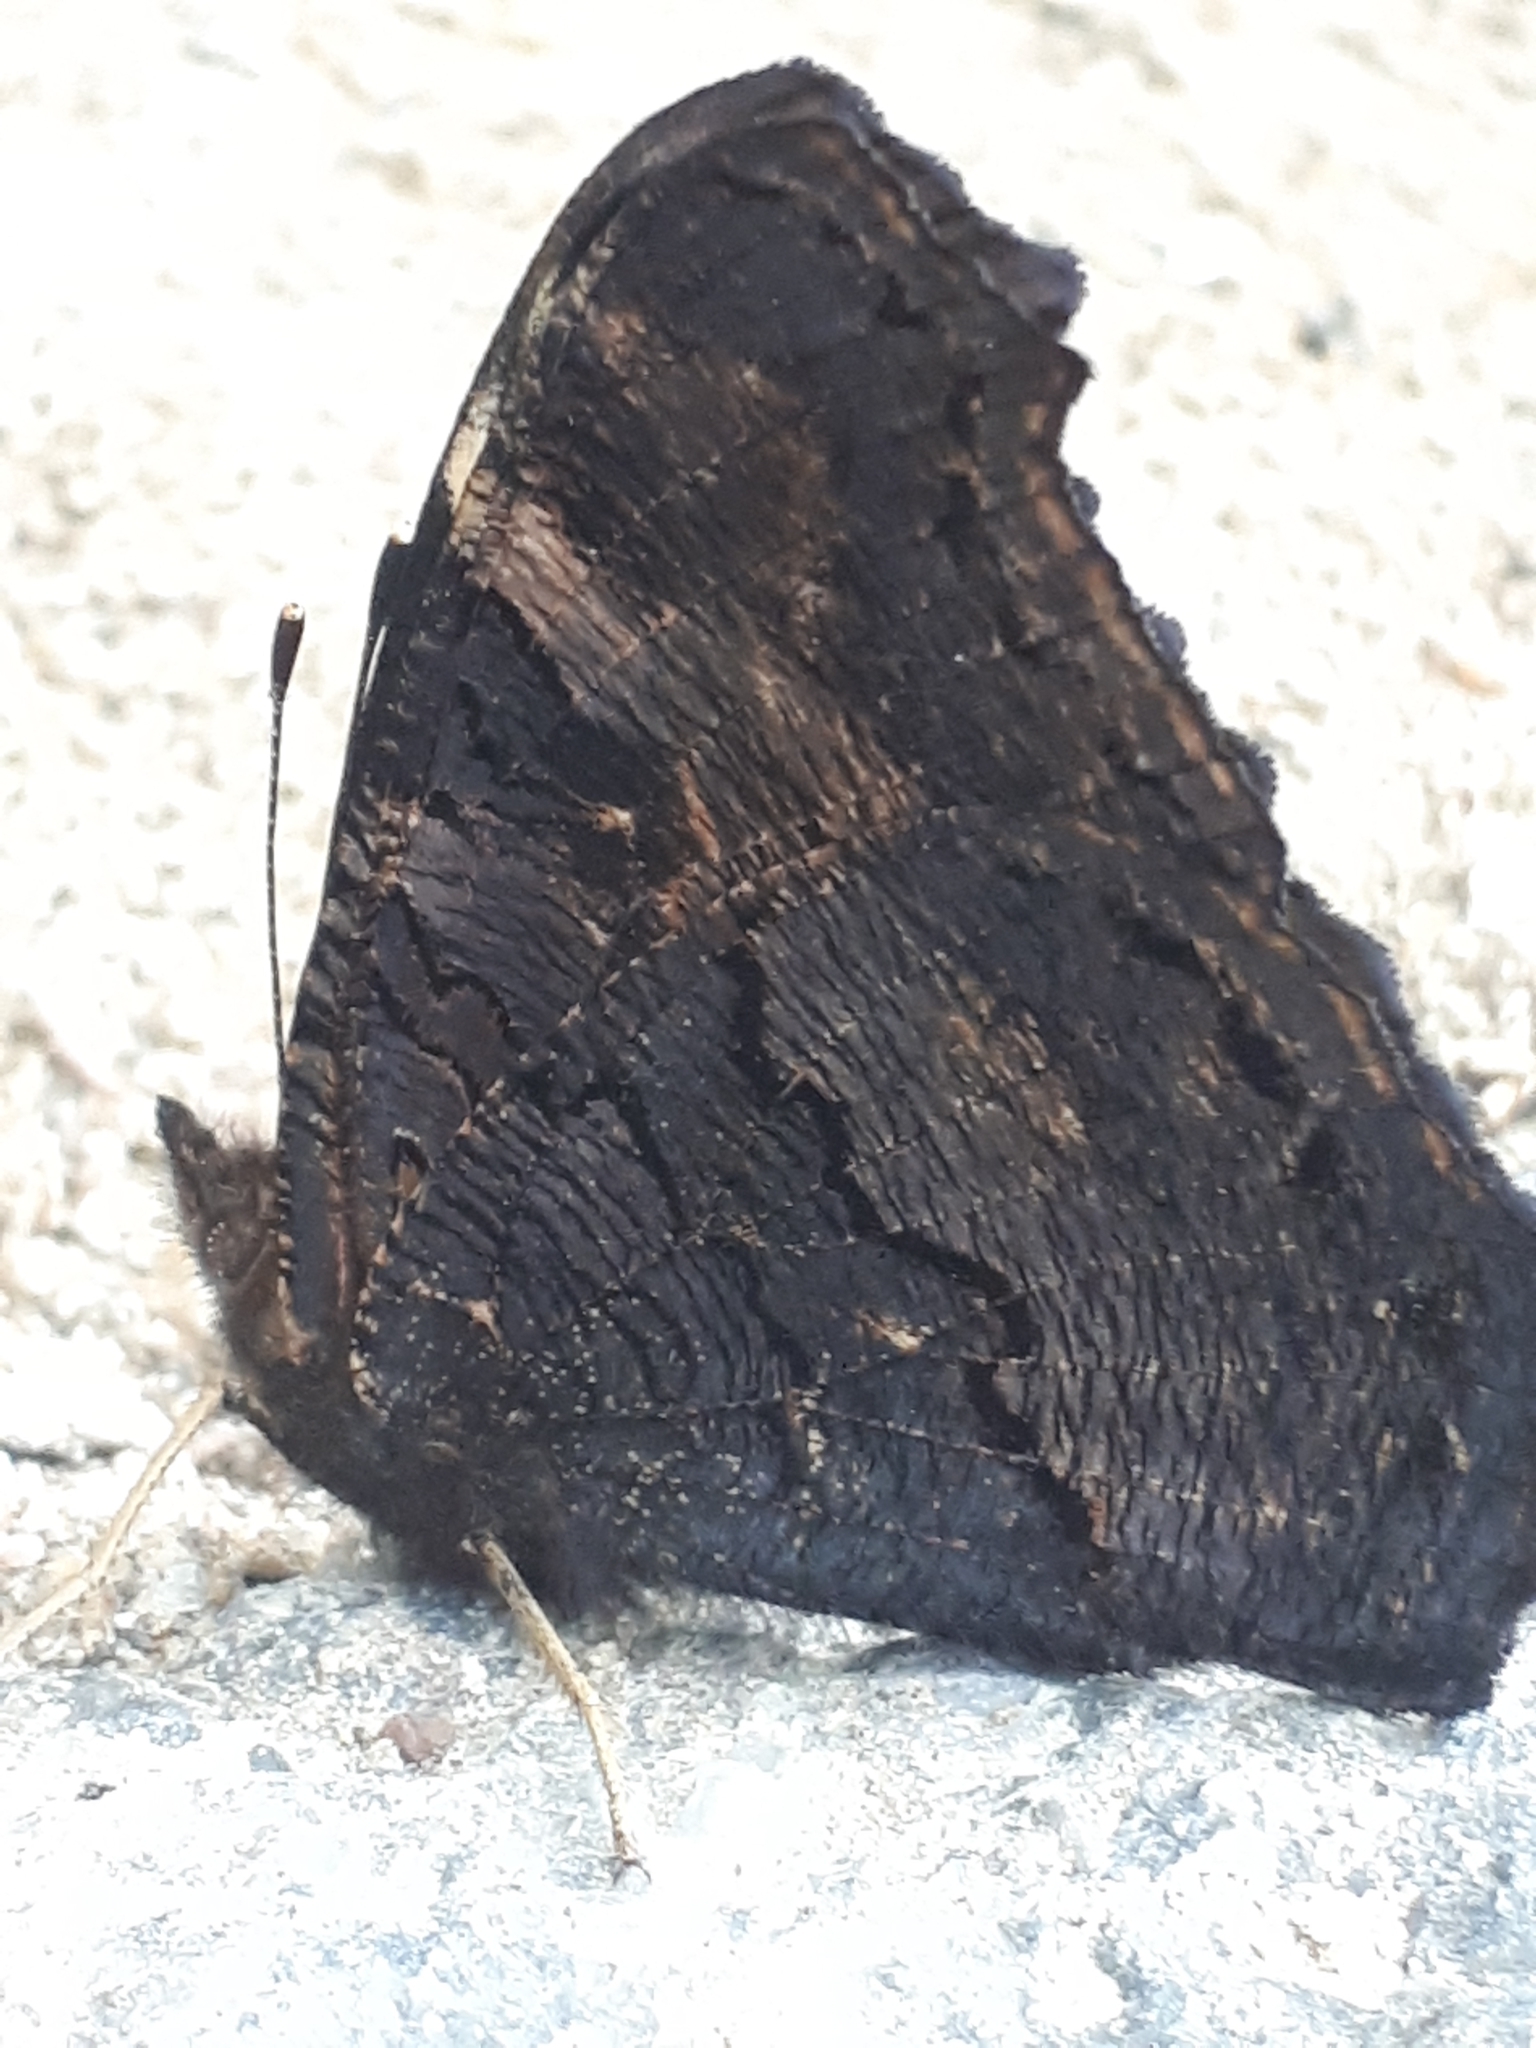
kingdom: Animalia
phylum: Arthropoda
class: Insecta
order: Lepidoptera
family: Nymphalidae
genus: Aglais
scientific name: Aglais io
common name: Peacock
